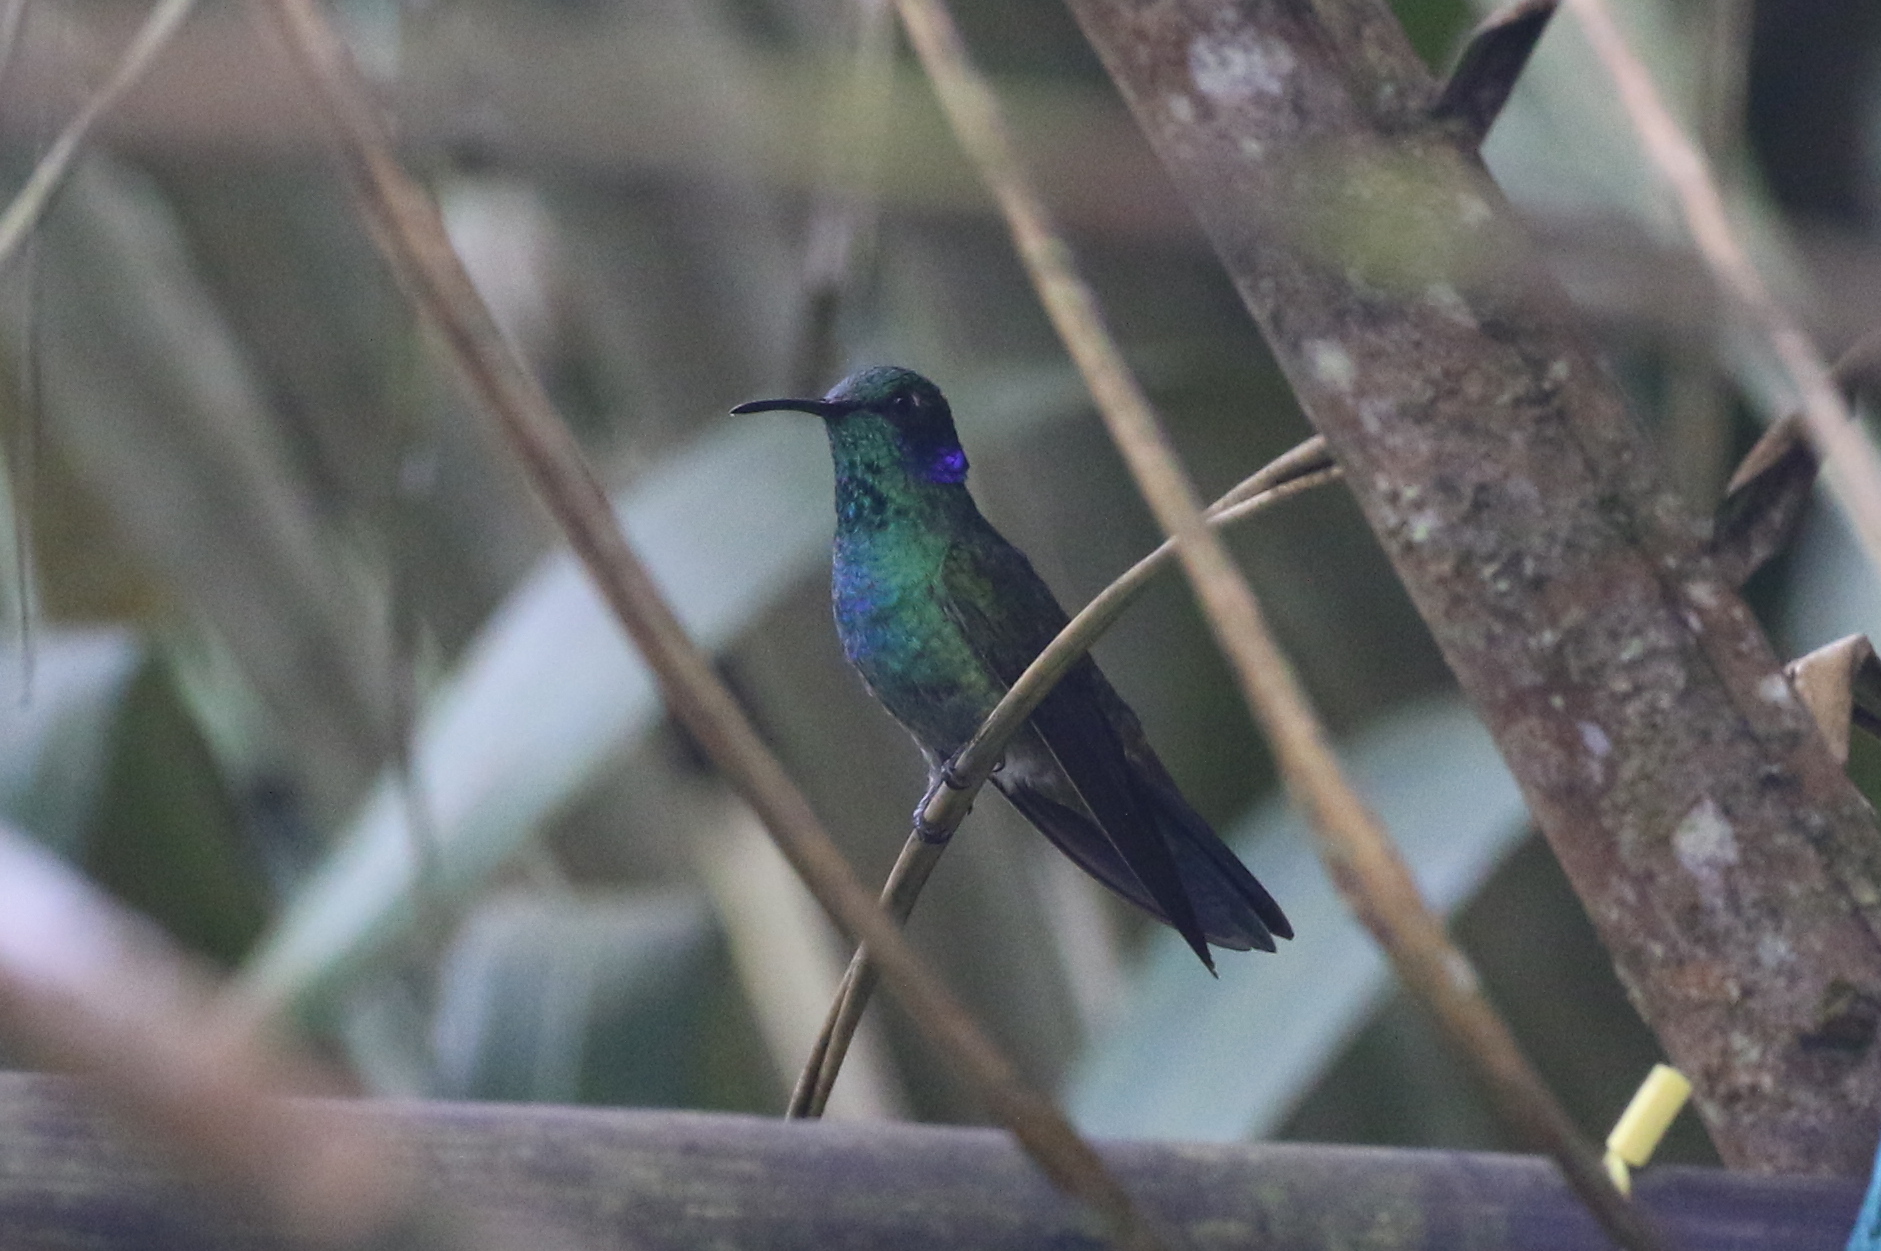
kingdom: Animalia
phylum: Chordata
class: Aves
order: Apodiformes
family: Trochilidae
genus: Colibri
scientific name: Colibri cyanotus
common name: Lesser violetear
